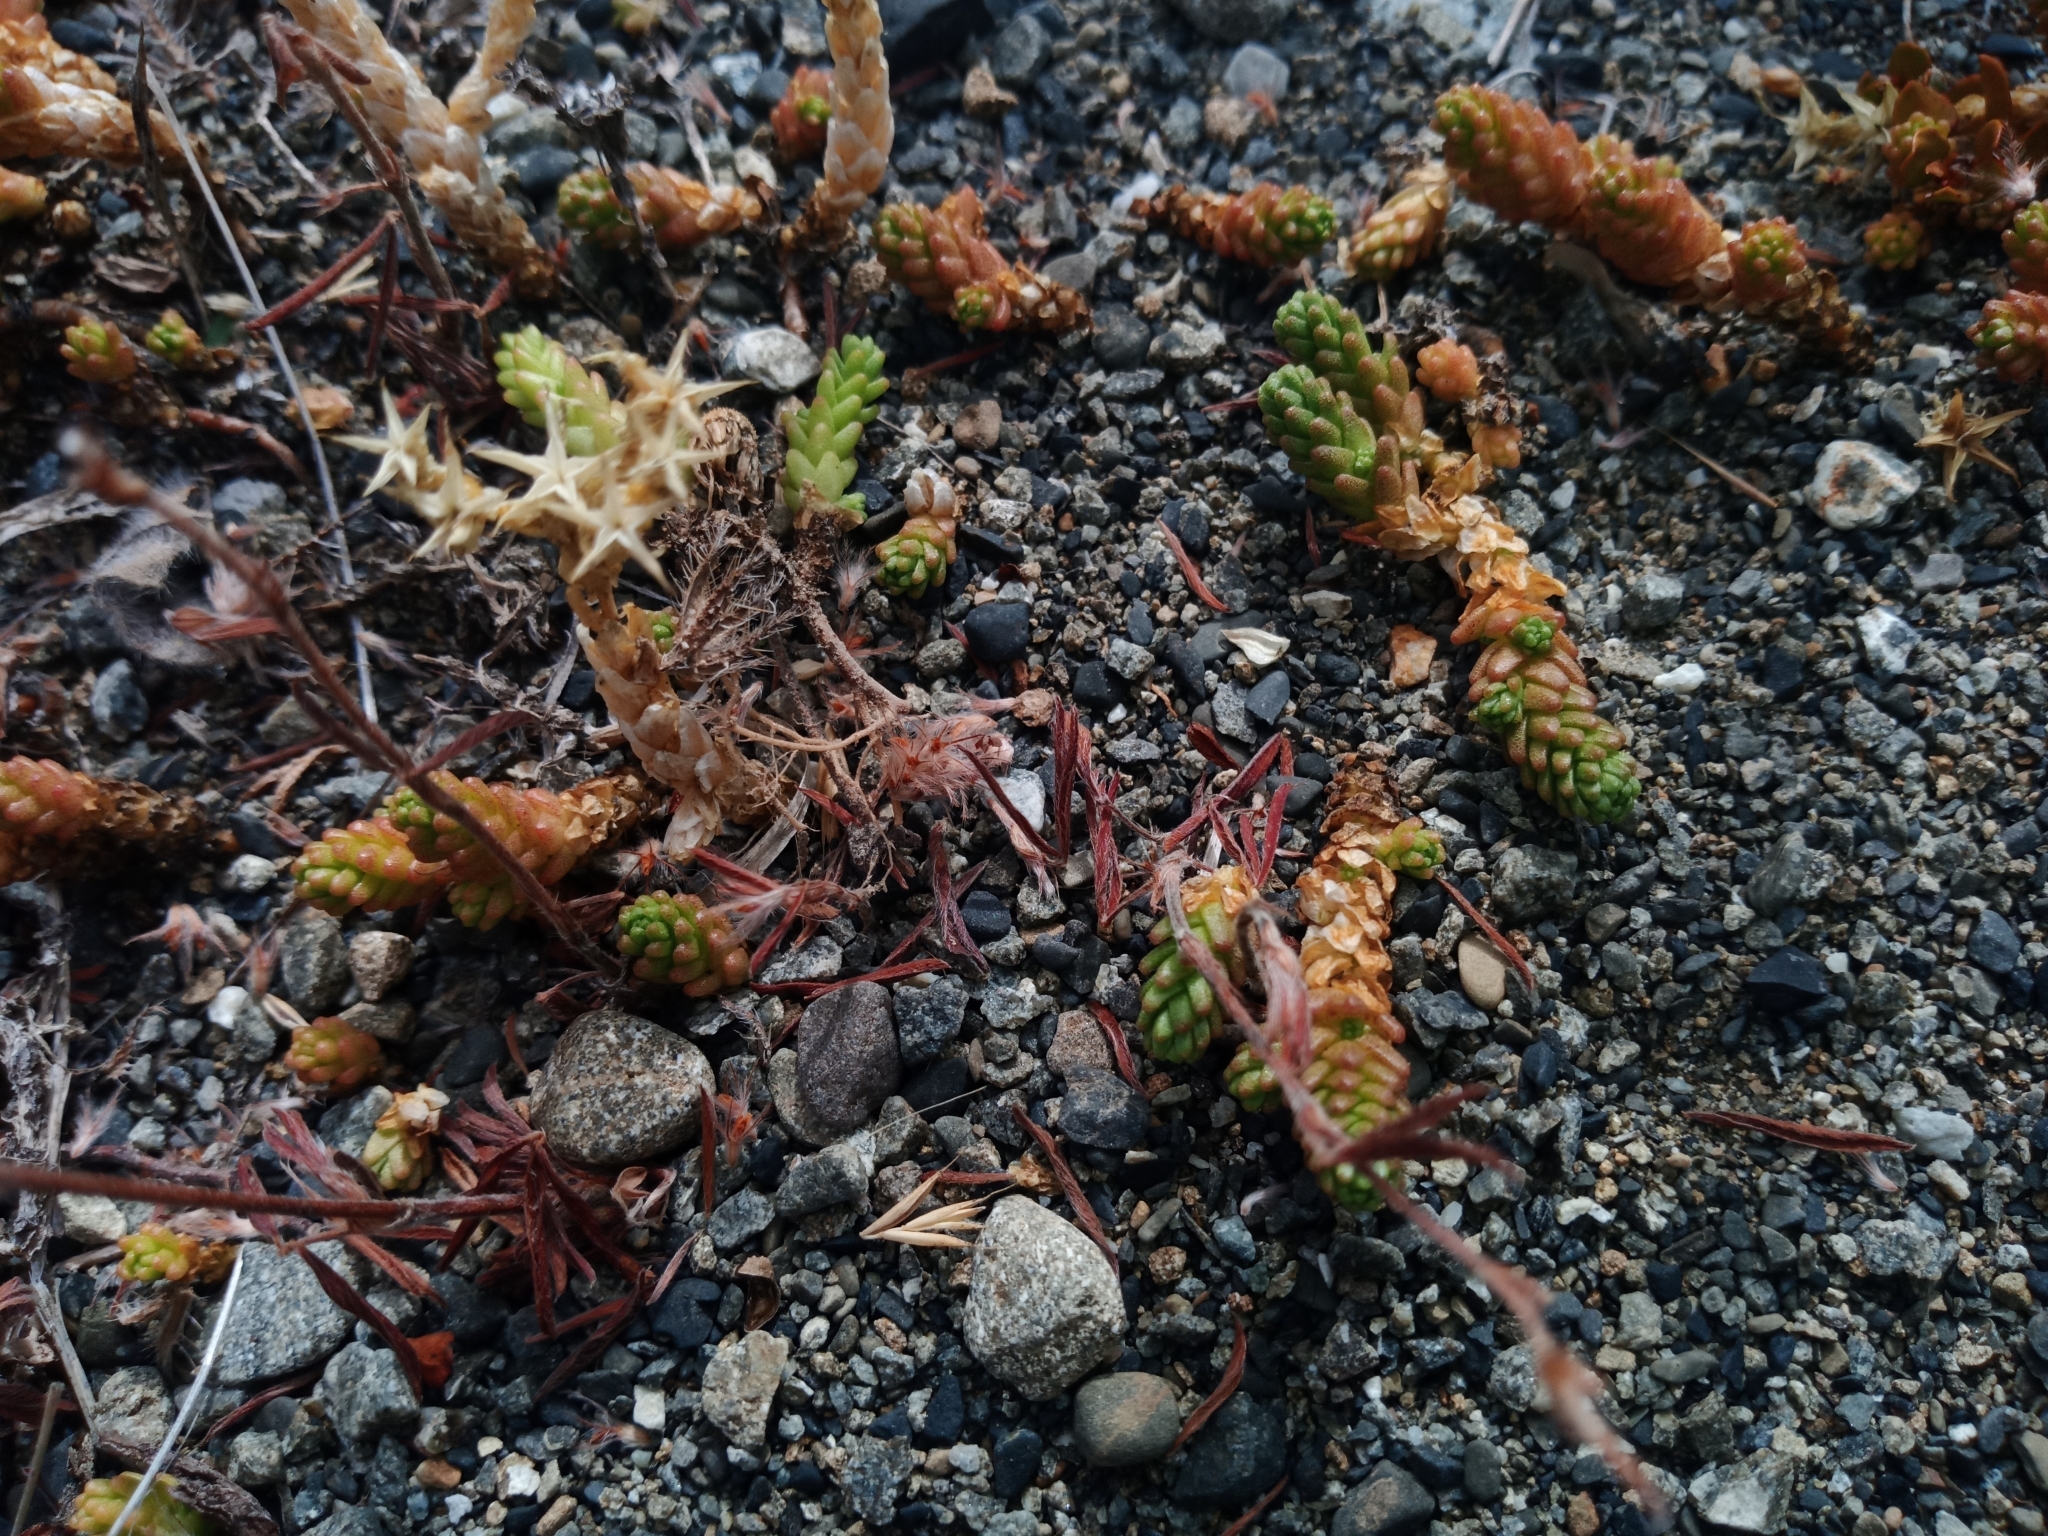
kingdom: Plantae
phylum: Tracheophyta
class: Magnoliopsida
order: Saxifragales
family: Crassulaceae
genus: Sedum
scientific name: Sedum acre
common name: Biting stonecrop
